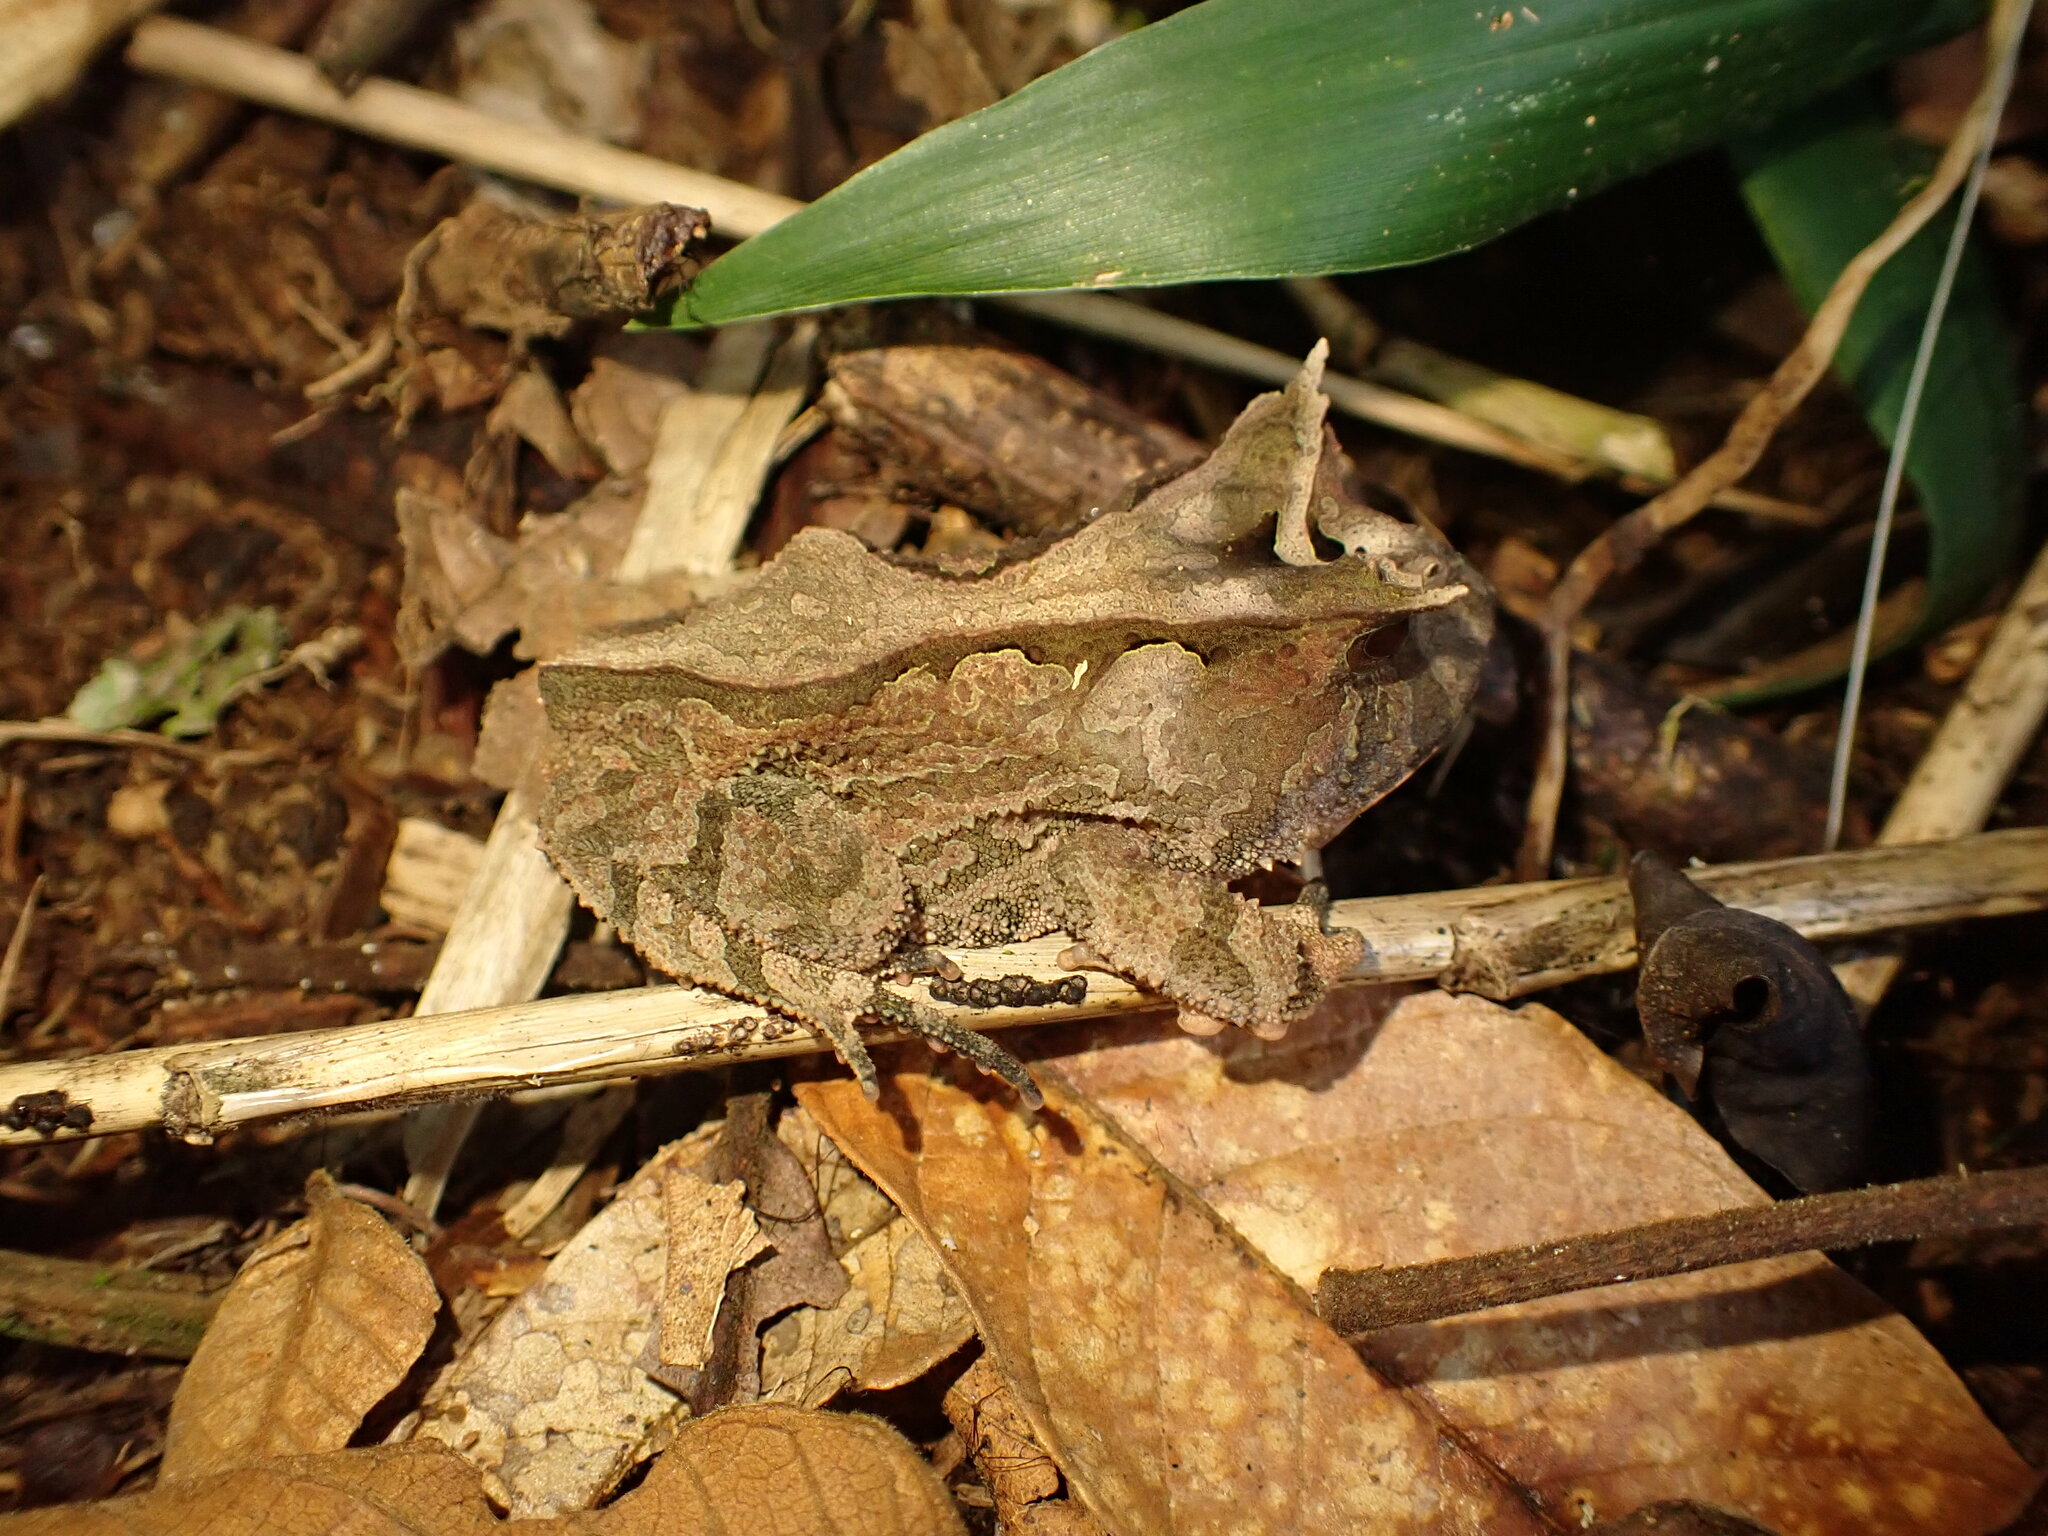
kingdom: Animalia
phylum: Chordata
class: Amphibia
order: Anura
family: Odontophrynidae
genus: Proceratophrys
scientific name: Proceratophrys boiei
